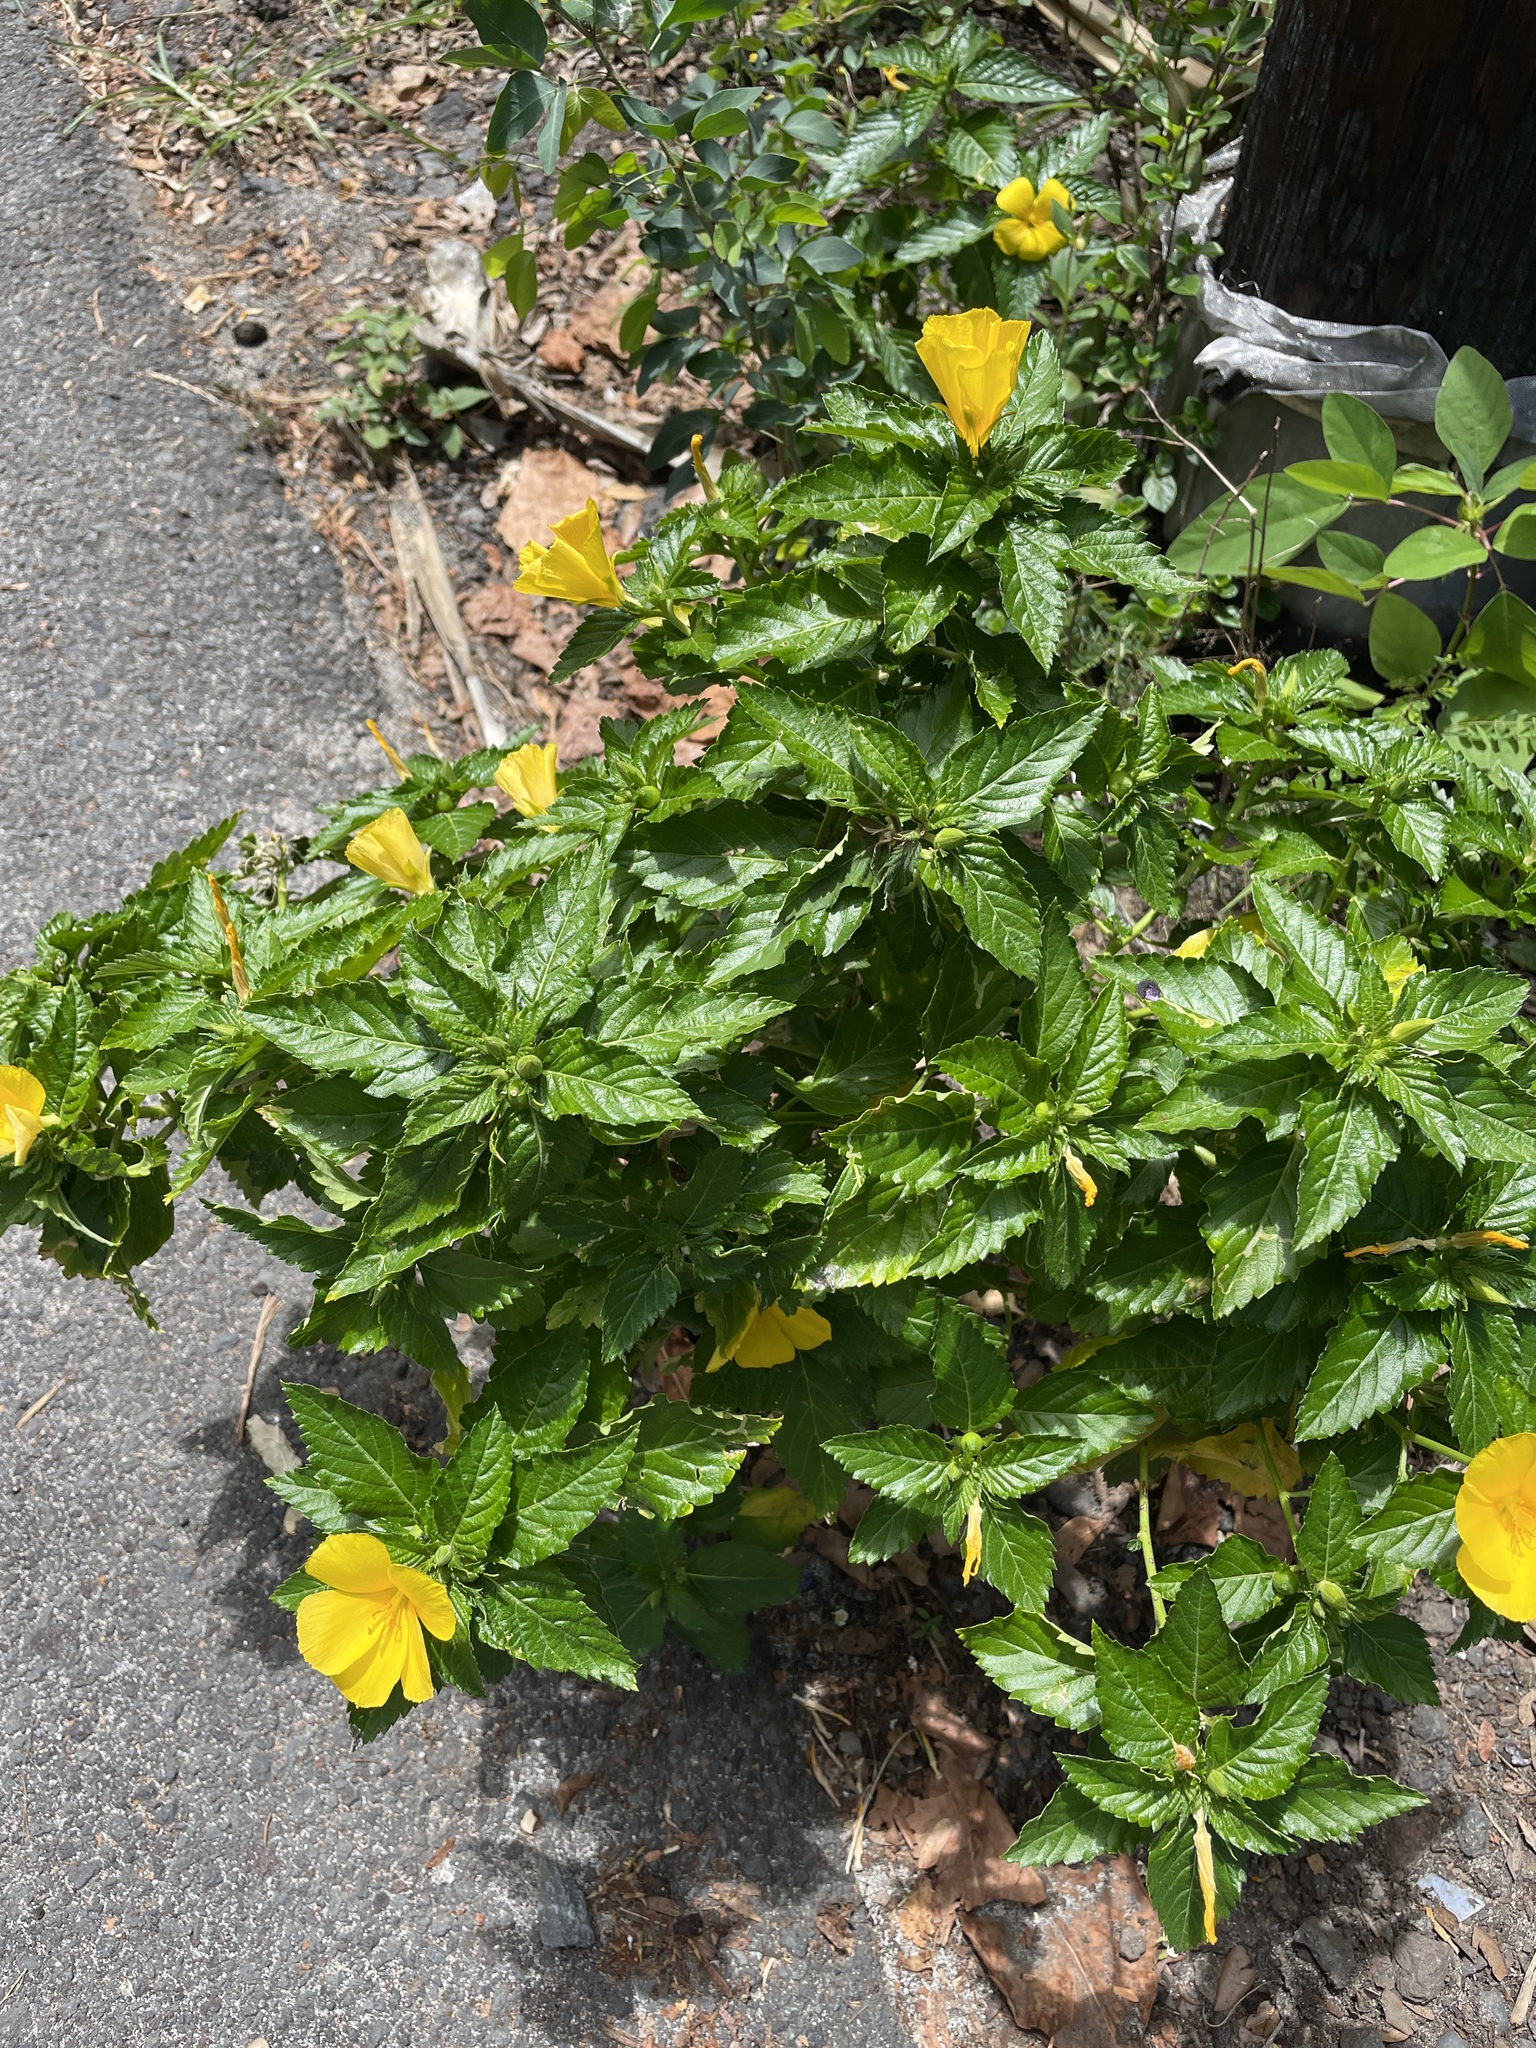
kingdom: Plantae
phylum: Tracheophyta
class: Magnoliopsida
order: Malpighiales
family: Turneraceae
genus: Turnera
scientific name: Turnera ulmifolia
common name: Ramgoat dashalong
